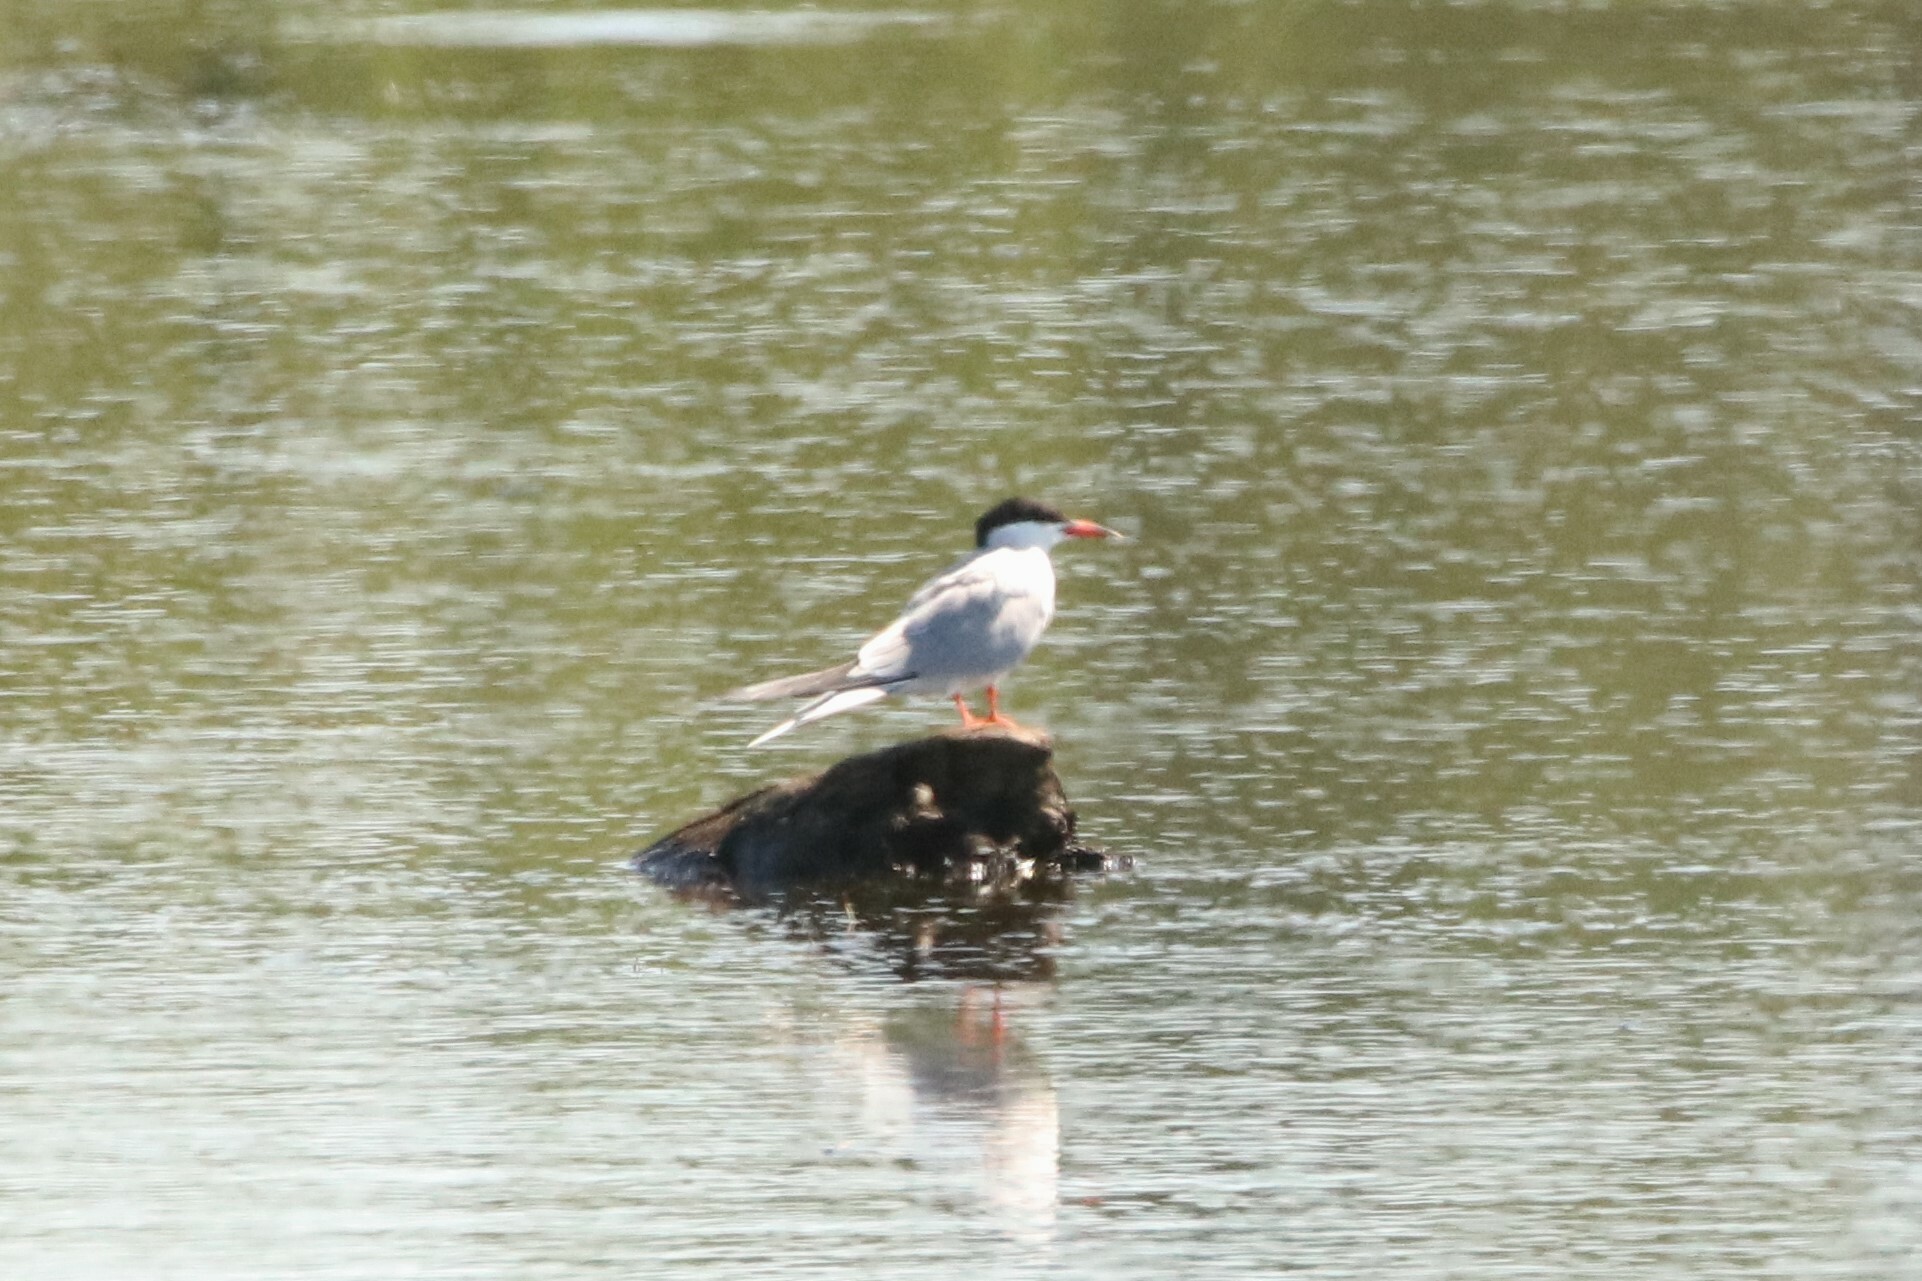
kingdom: Animalia
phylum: Chordata
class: Aves
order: Charadriiformes
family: Laridae
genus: Sterna
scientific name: Sterna hirundo
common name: Common tern
